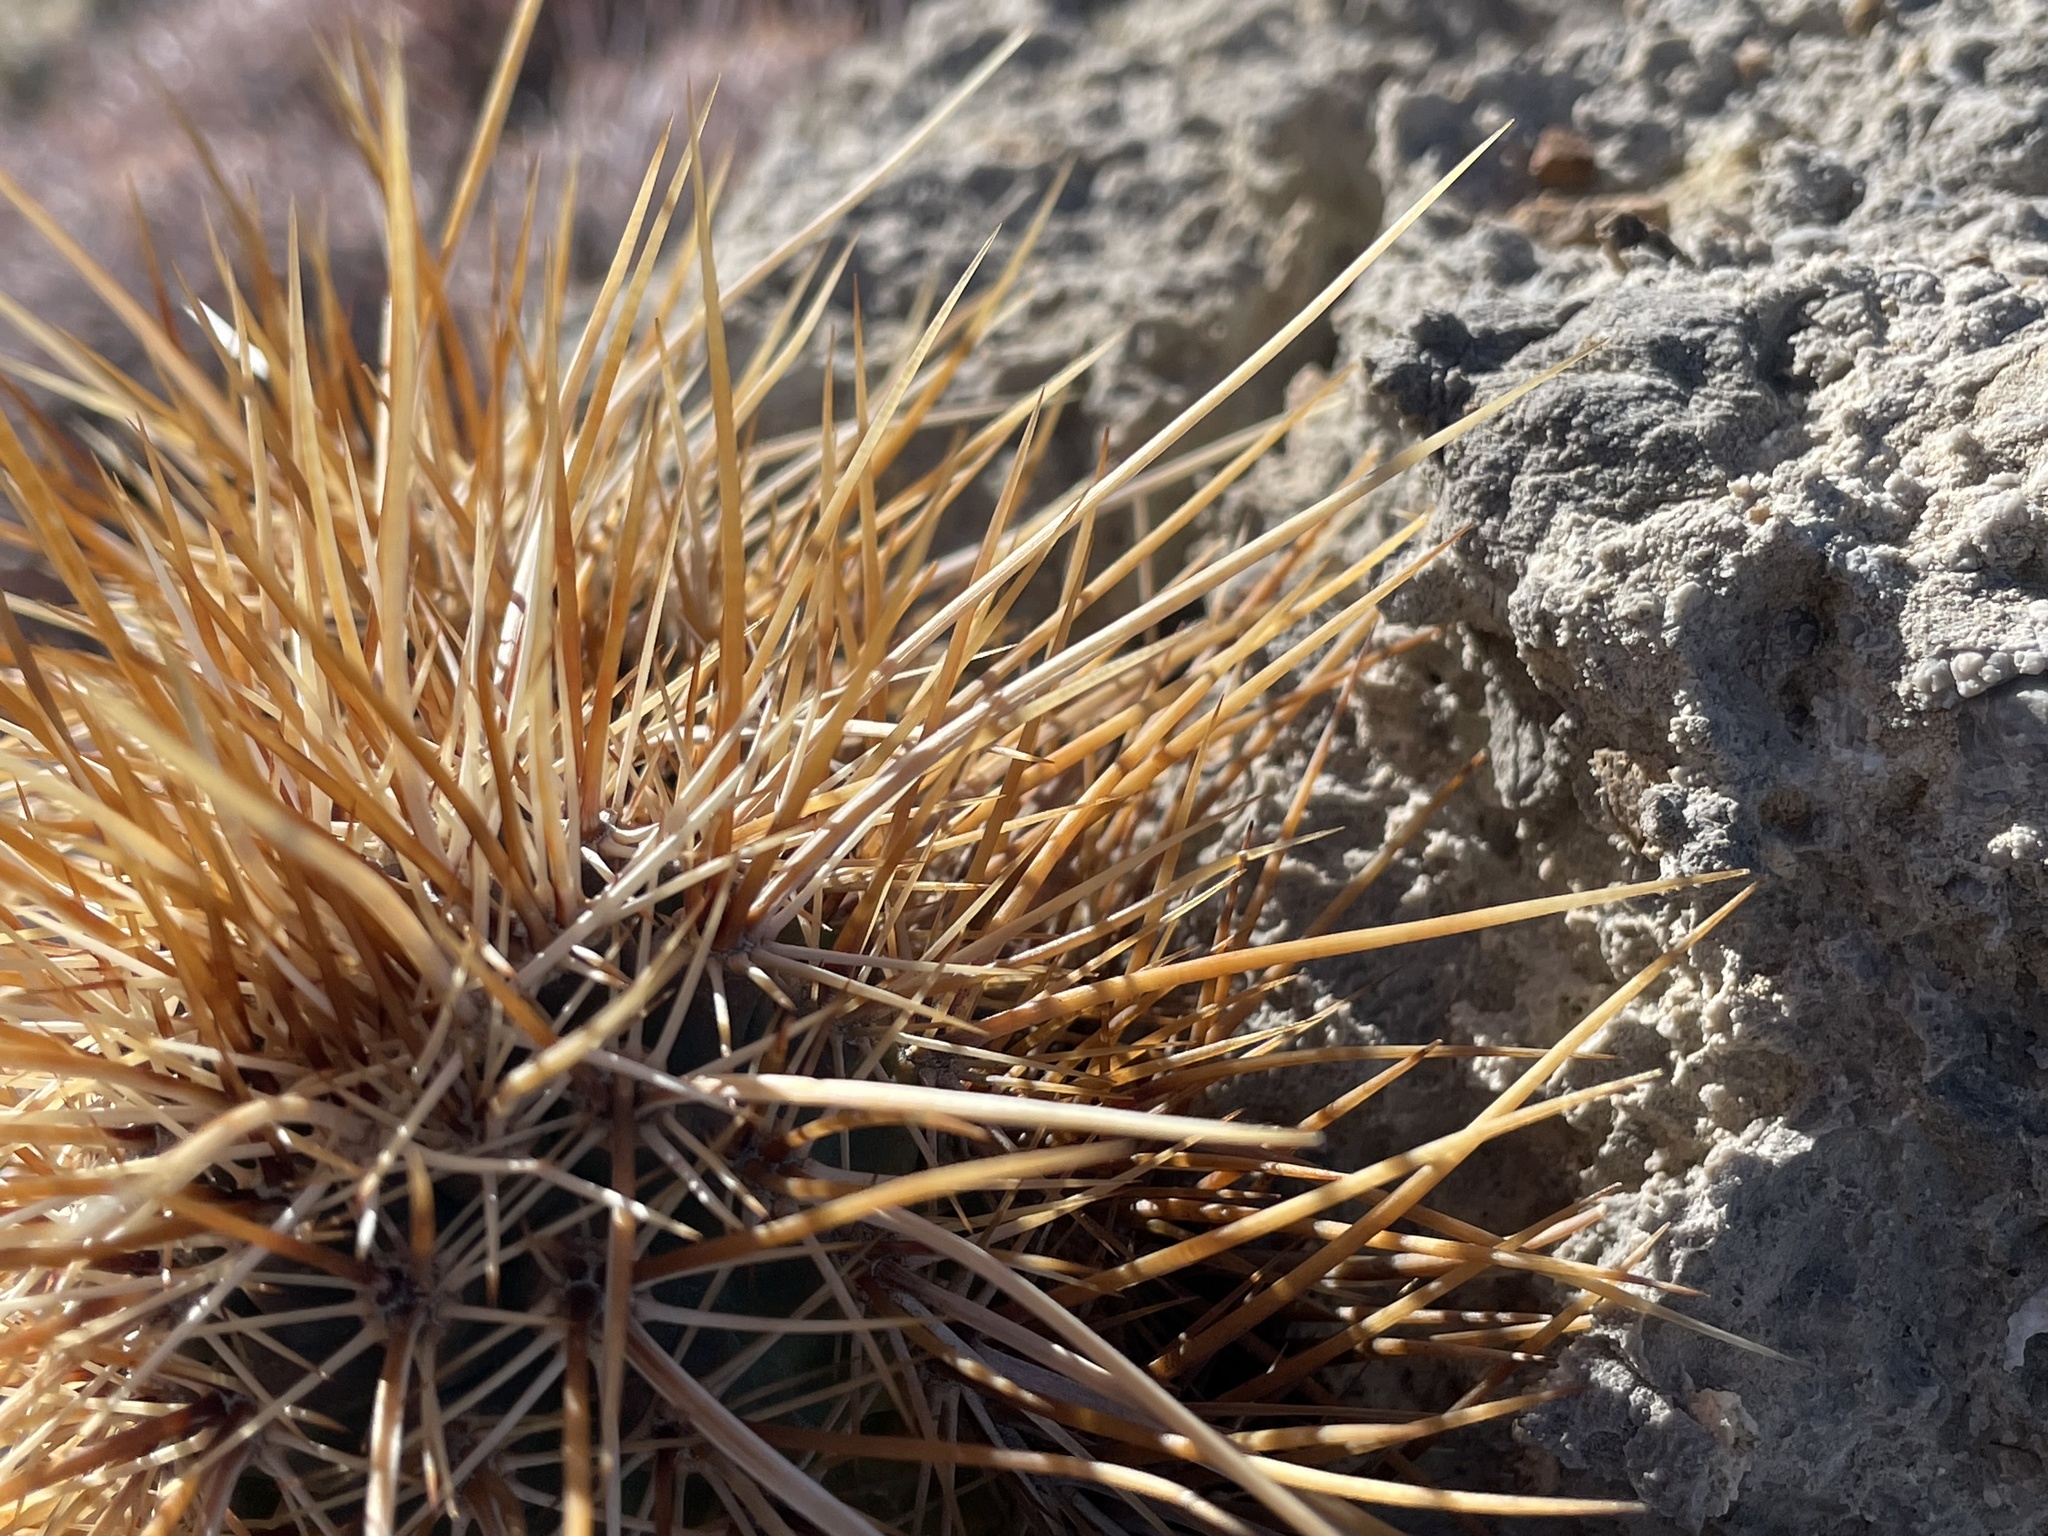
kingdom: Plantae
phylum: Tracheophyta
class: Magnoliopsida
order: Caryophyllales
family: Cactaceae
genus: Echinocereus
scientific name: Echinocereus engelmannii
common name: Engelmann's hedgehog cactus
